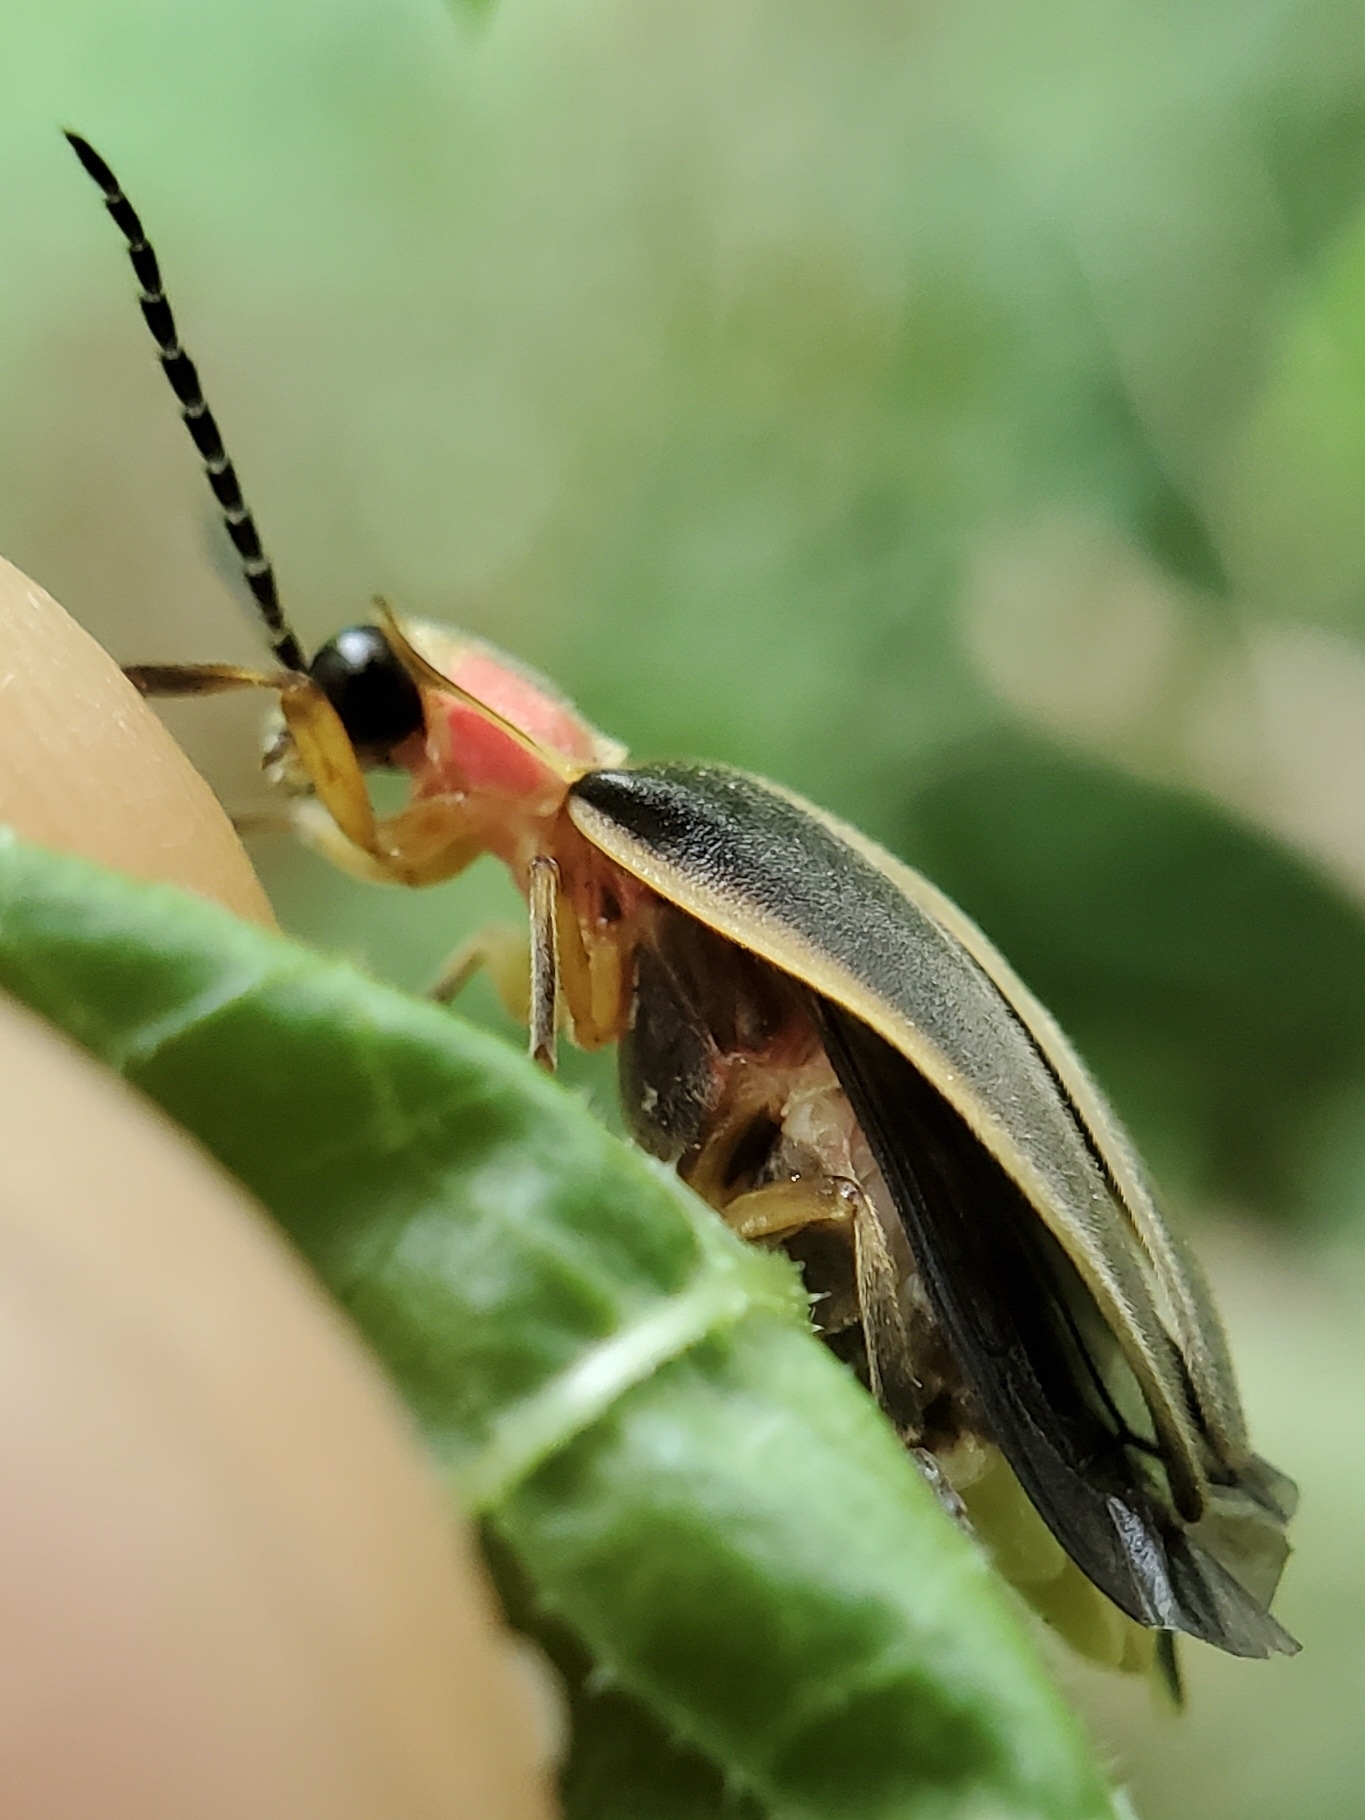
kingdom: Animalia
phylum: Arthropoda
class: Insecta
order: Coleoptera
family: Lampyridae
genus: Photinus
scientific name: Photinus pyralis
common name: Big dipper firefly
